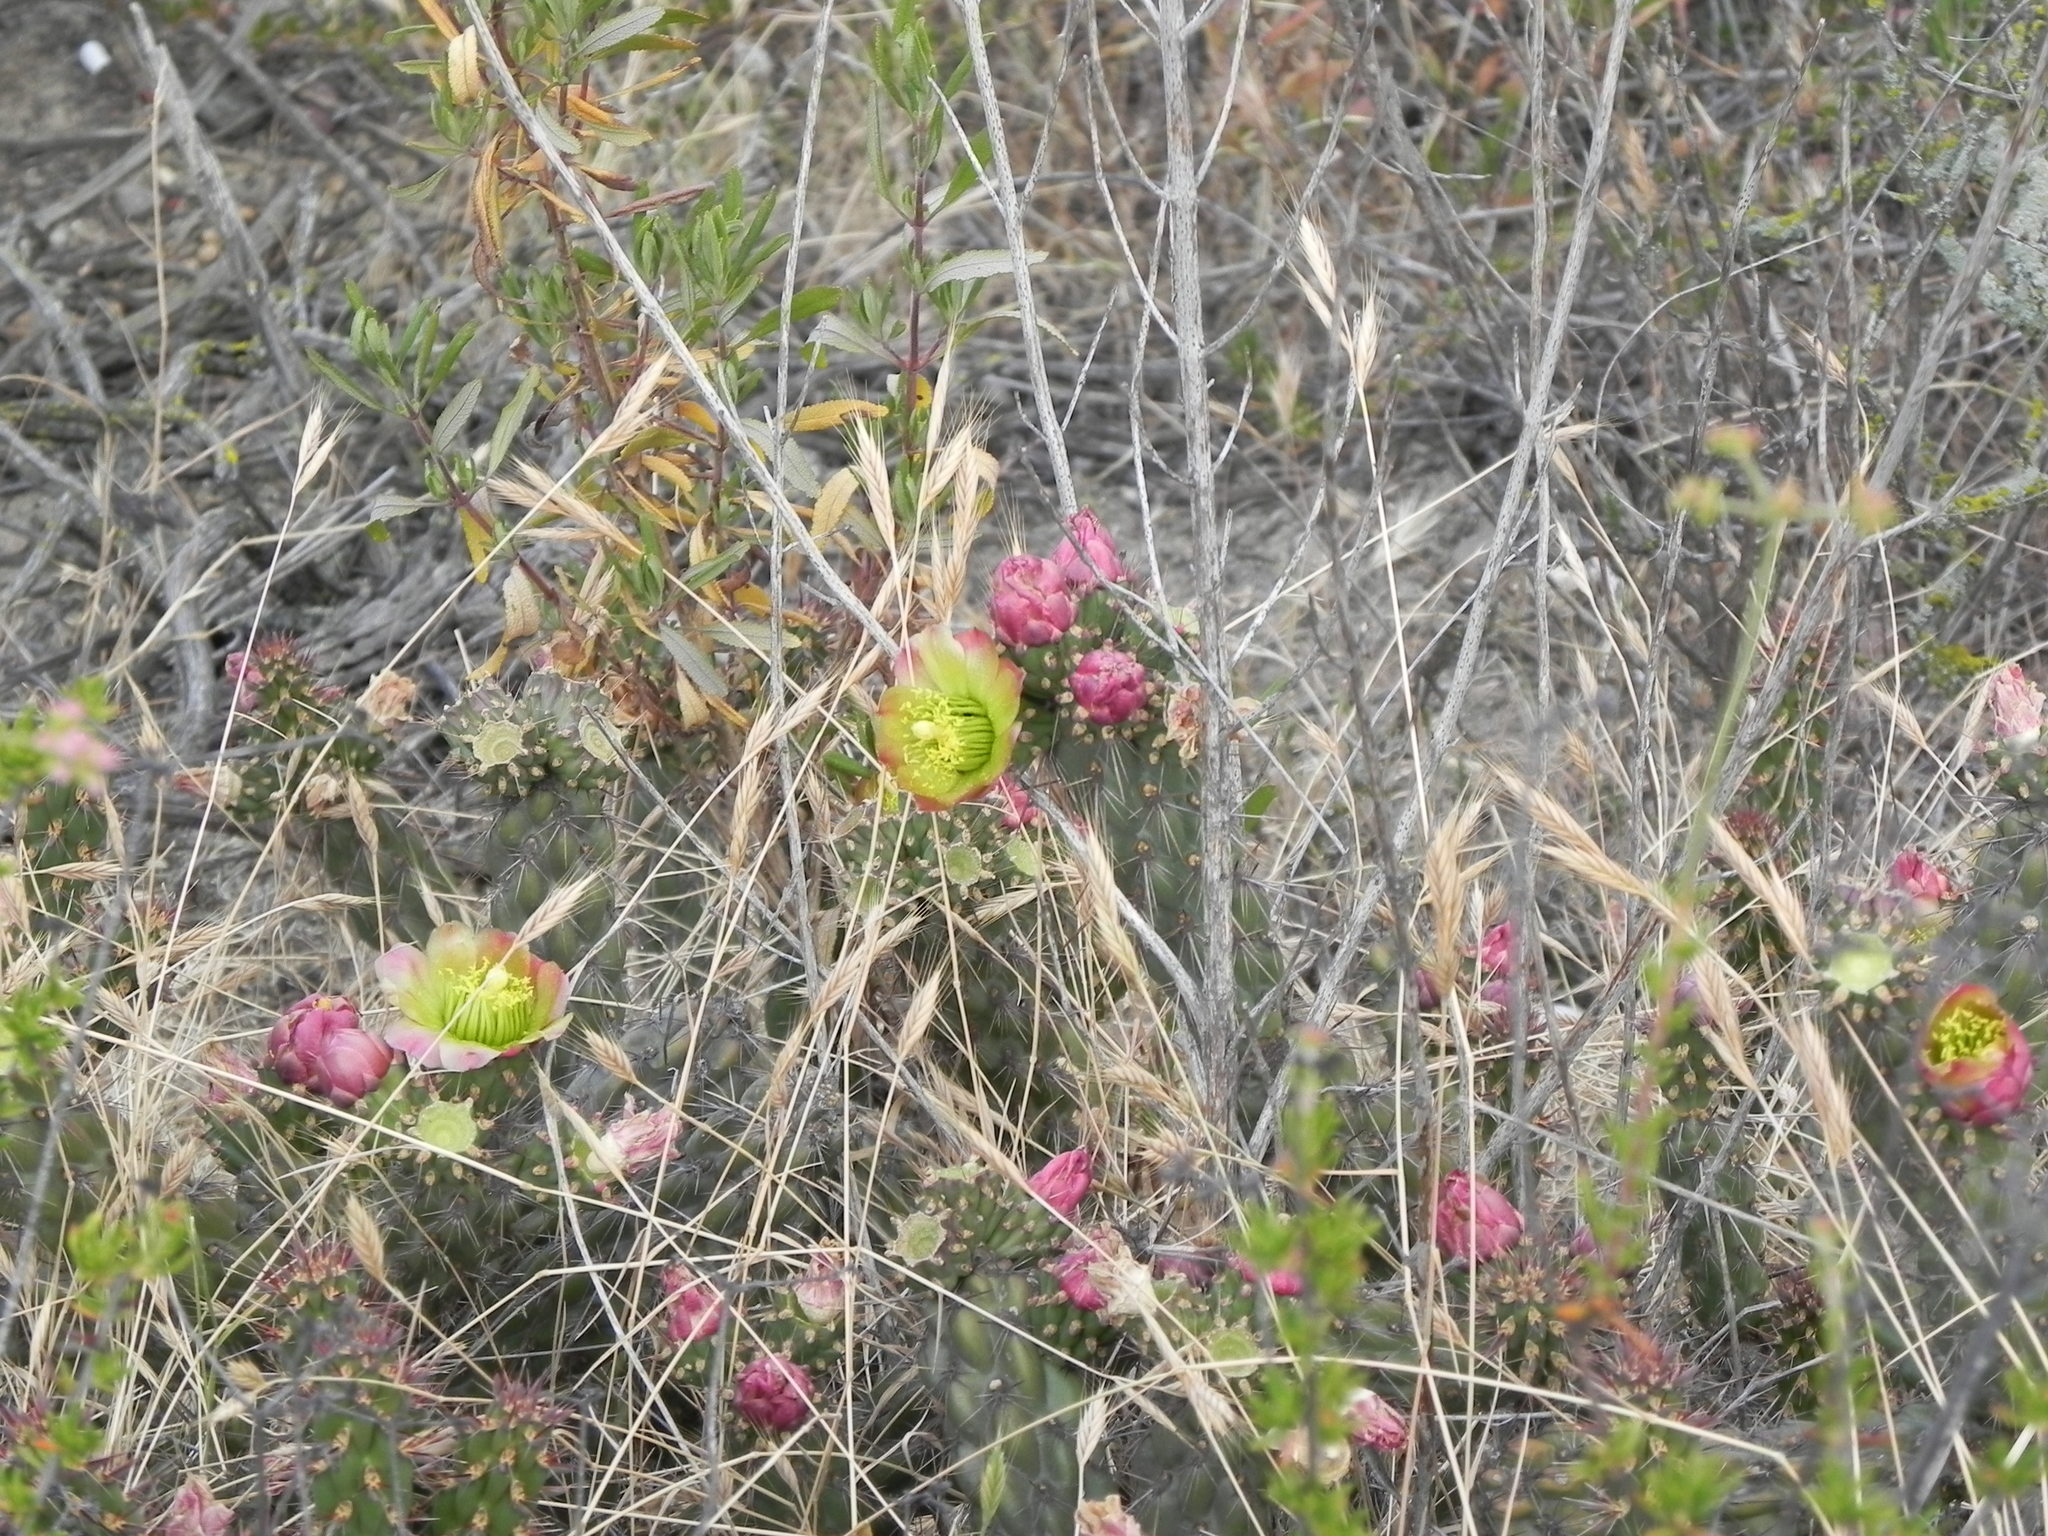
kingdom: Plantae
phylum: Tracheophyta
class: Magnoliopsida
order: Caryophyllales
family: Cactaceae
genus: Cylindropuntia
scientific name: Cylindropuntia californica
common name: Snake cholla
